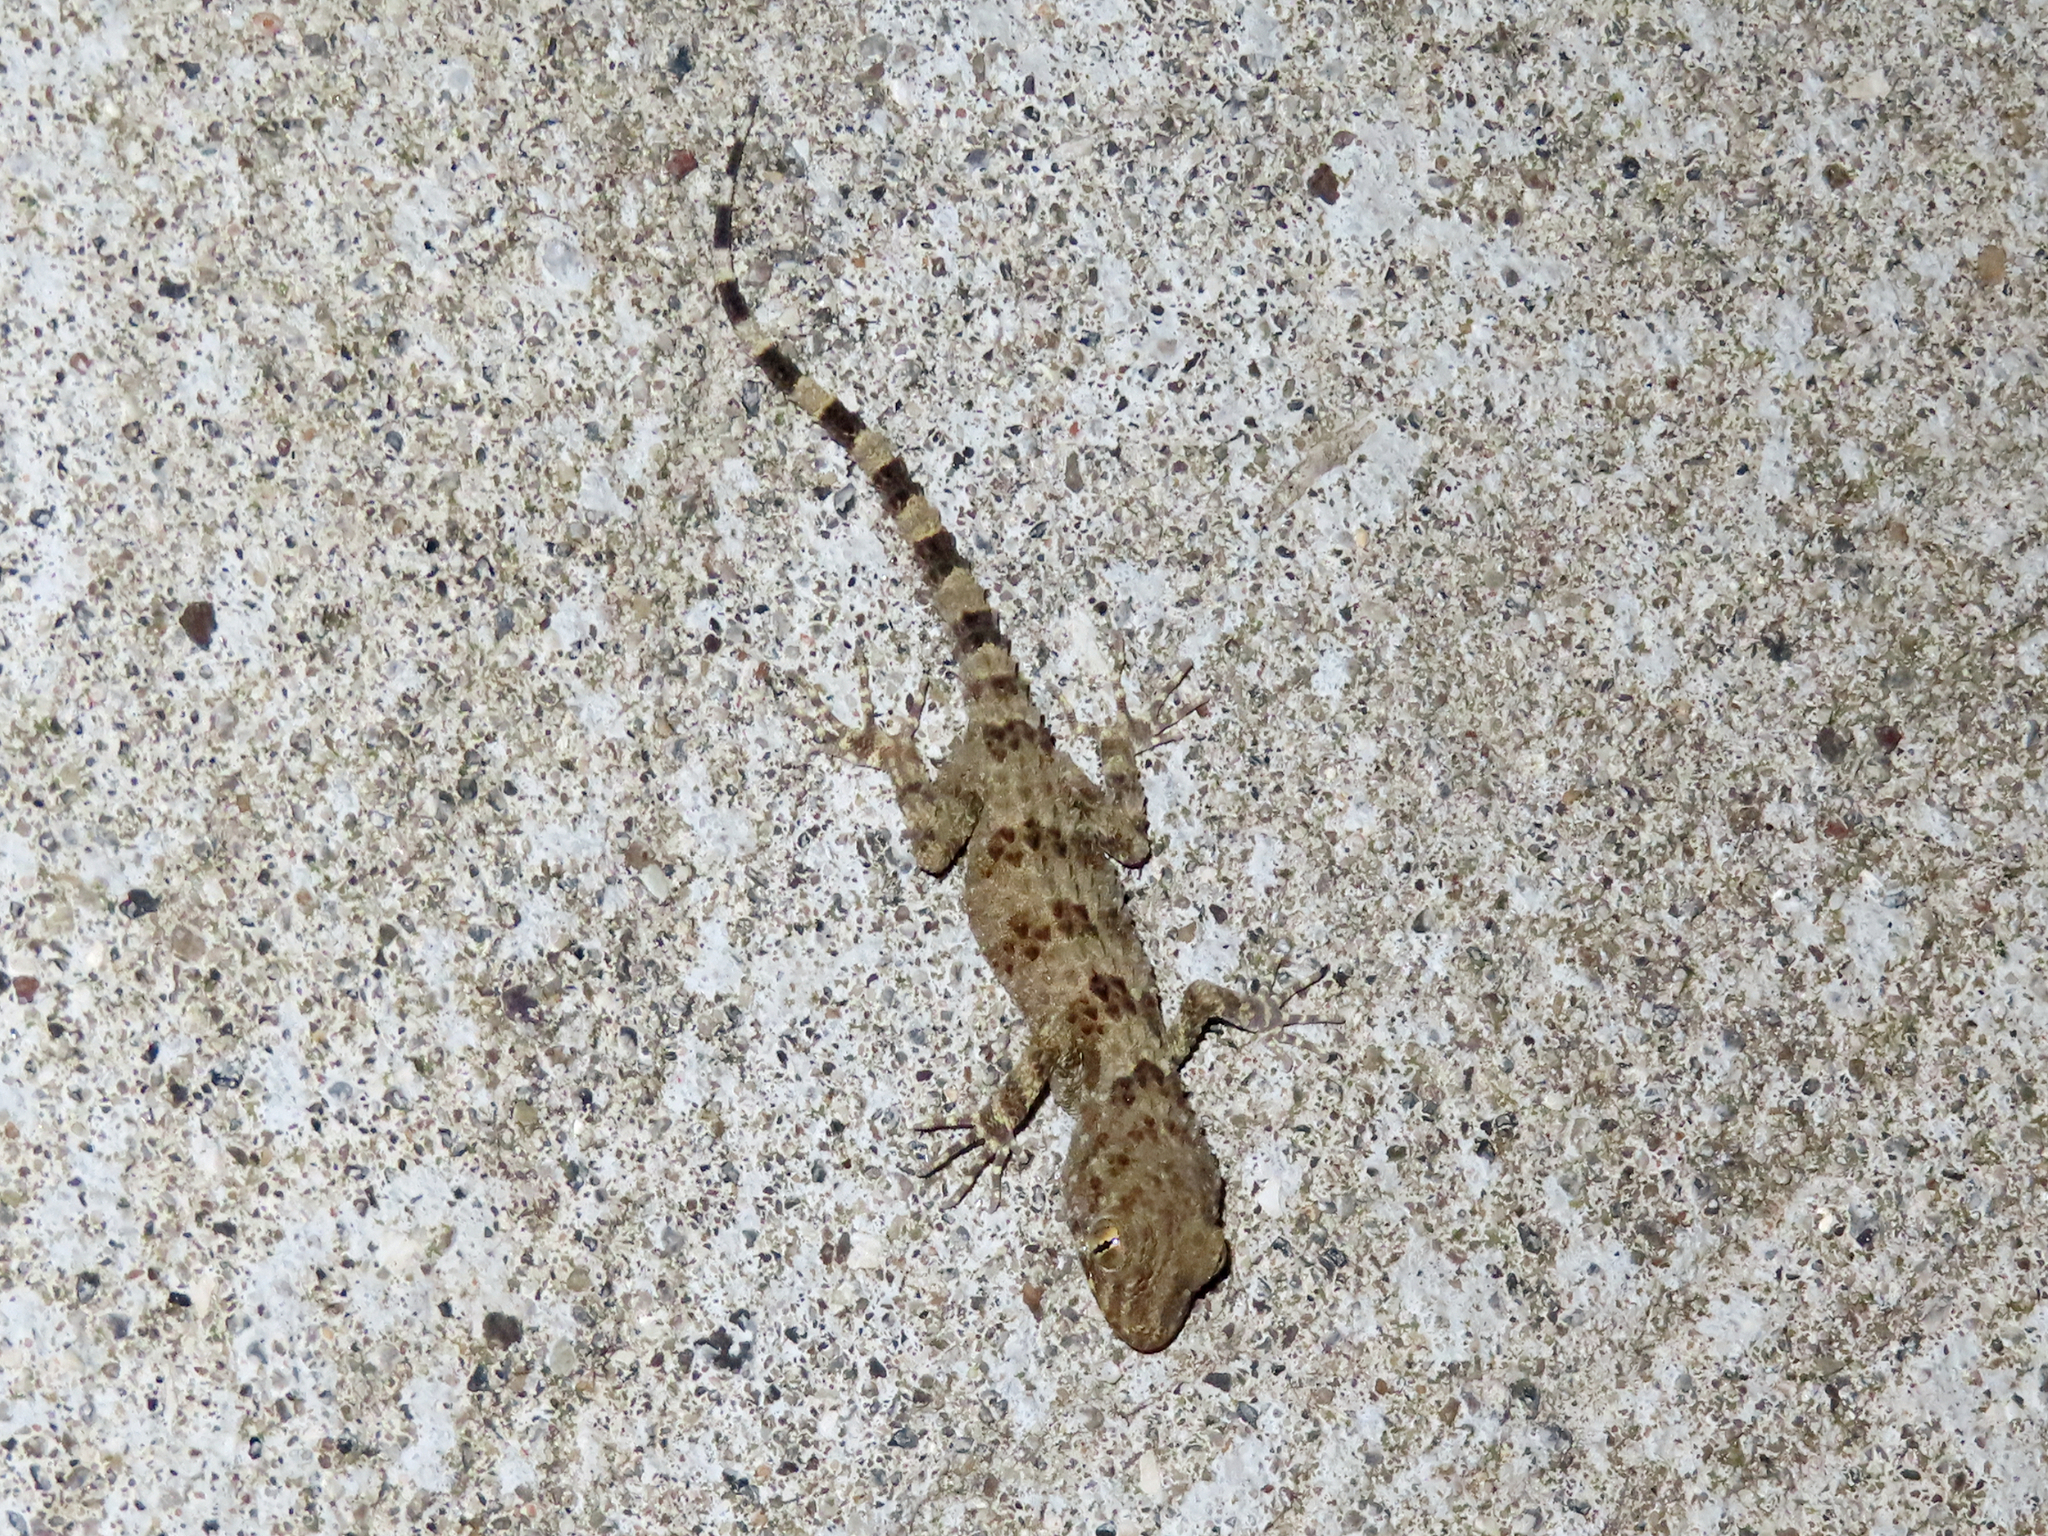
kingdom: Animalia
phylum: Chordata
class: Squamata
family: Gekkonidae
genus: Tenuidactylus
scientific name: Tenuidactylus caspius
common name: Caspian bent-toed gecko
